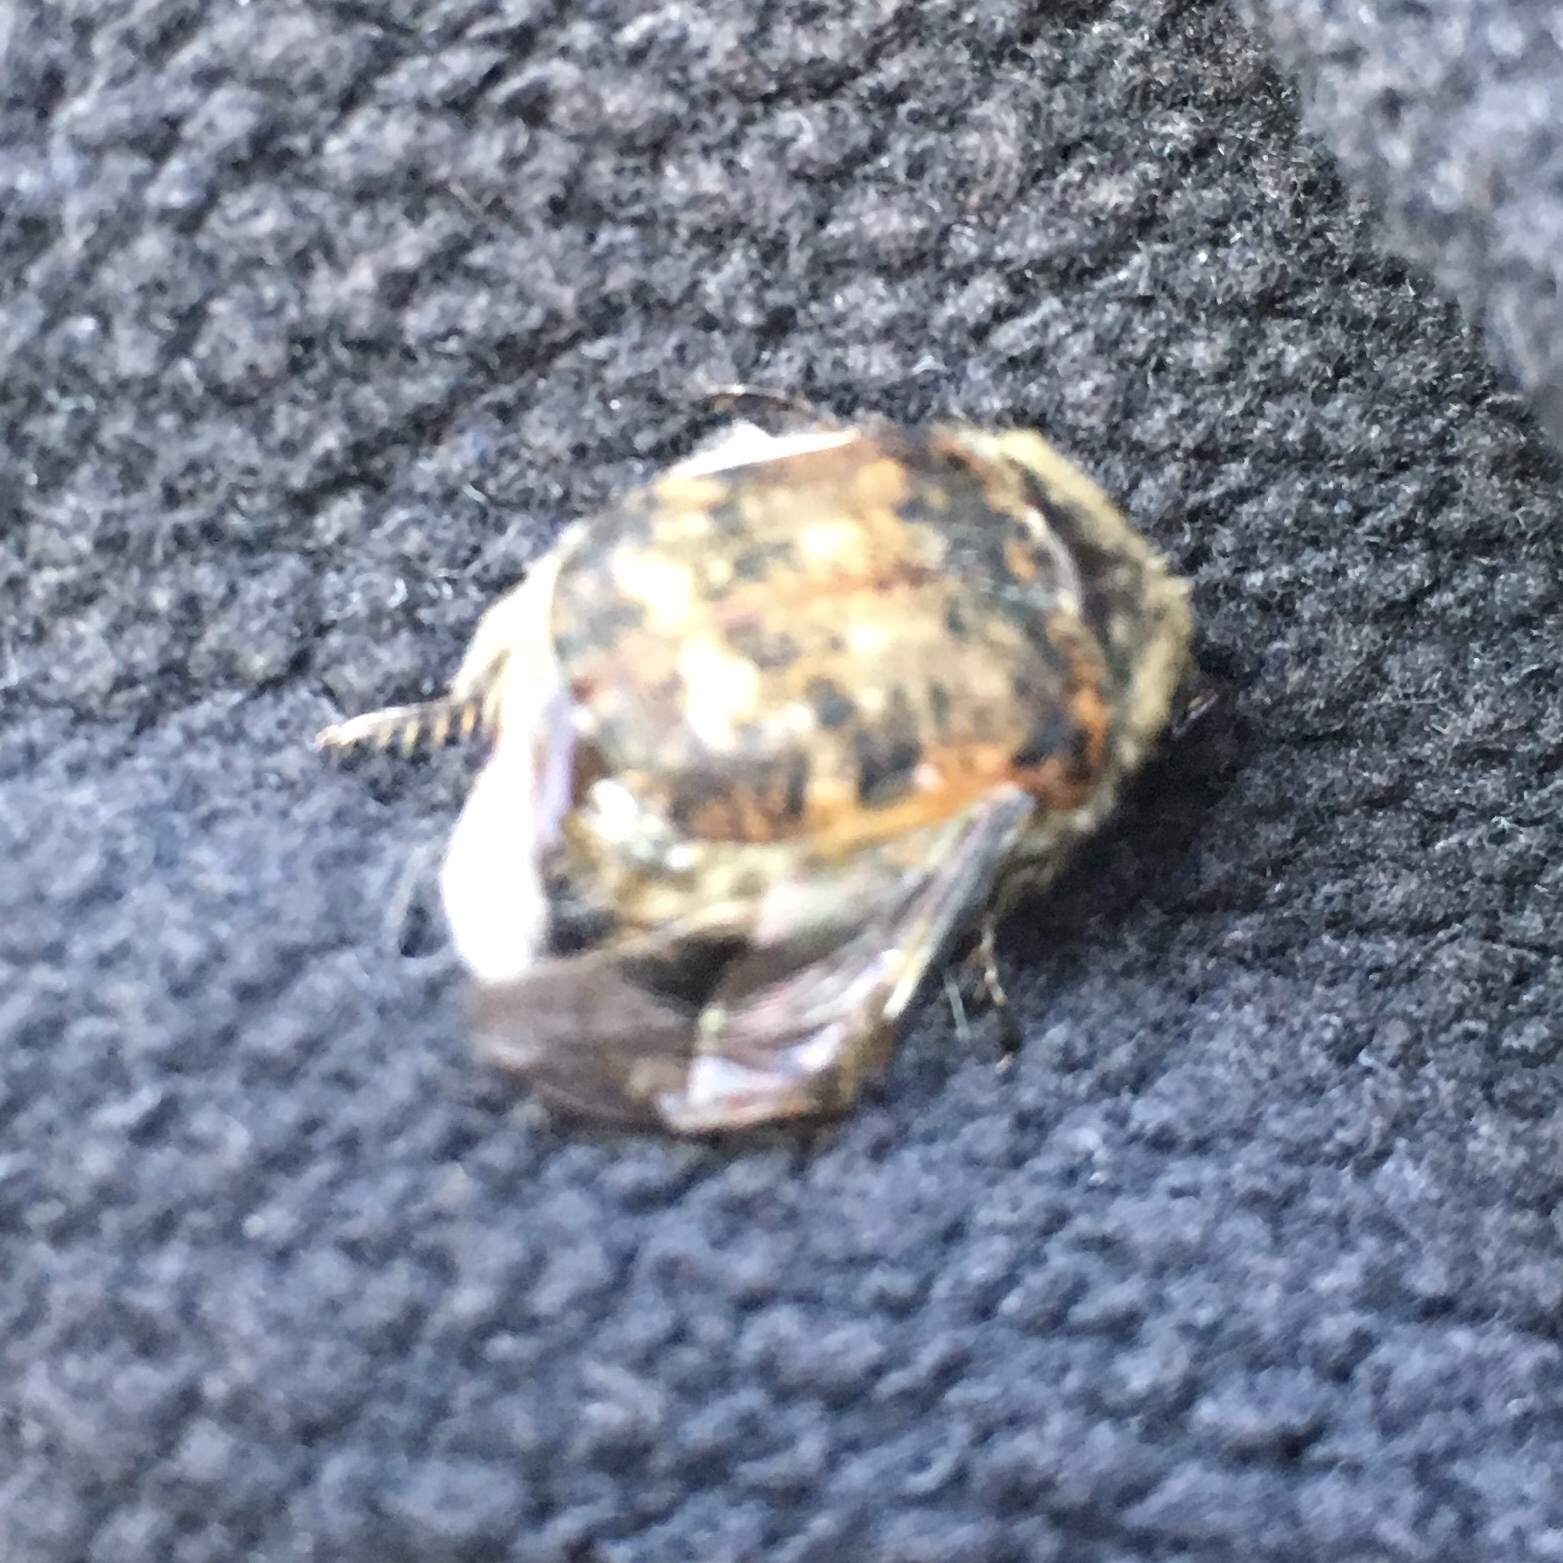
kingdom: Animalia
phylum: Arthropoda
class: Insecta
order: Coleoptera
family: Scarabaeidae
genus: Euphoria
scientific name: Euphoria inda
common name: Bumble flower beetle
